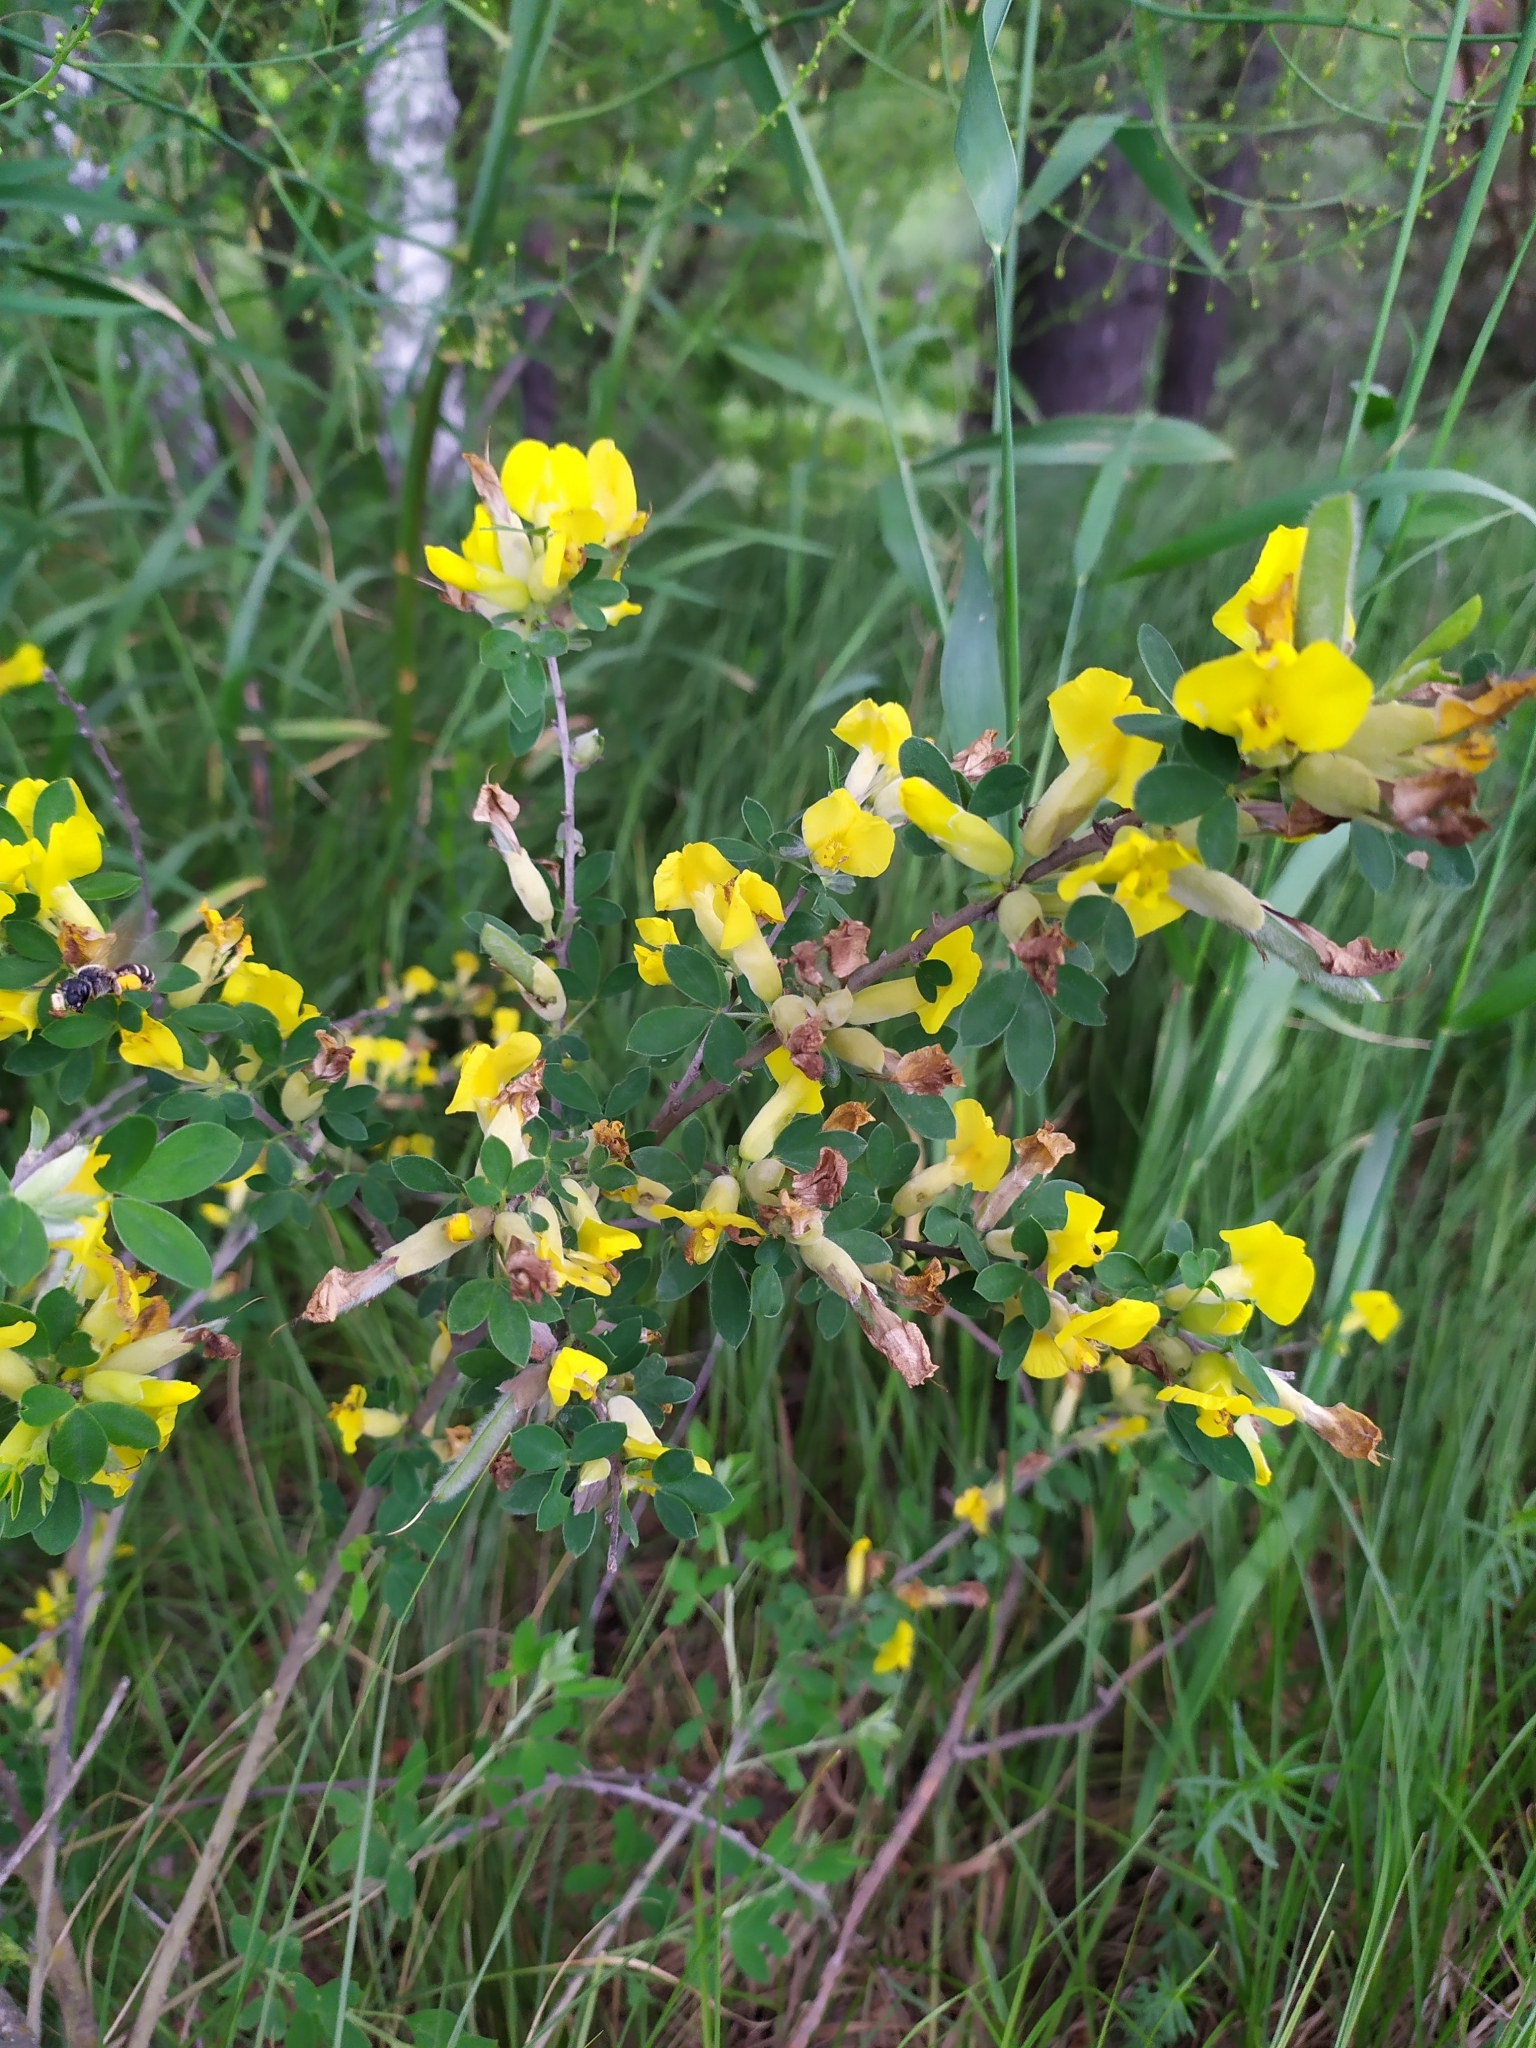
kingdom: Plantae
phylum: Tracheophyta
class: Magnoliopsida
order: Fabales
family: Fabaceae
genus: Chamaecytisus
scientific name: Chamaecytisus ruthenicus
